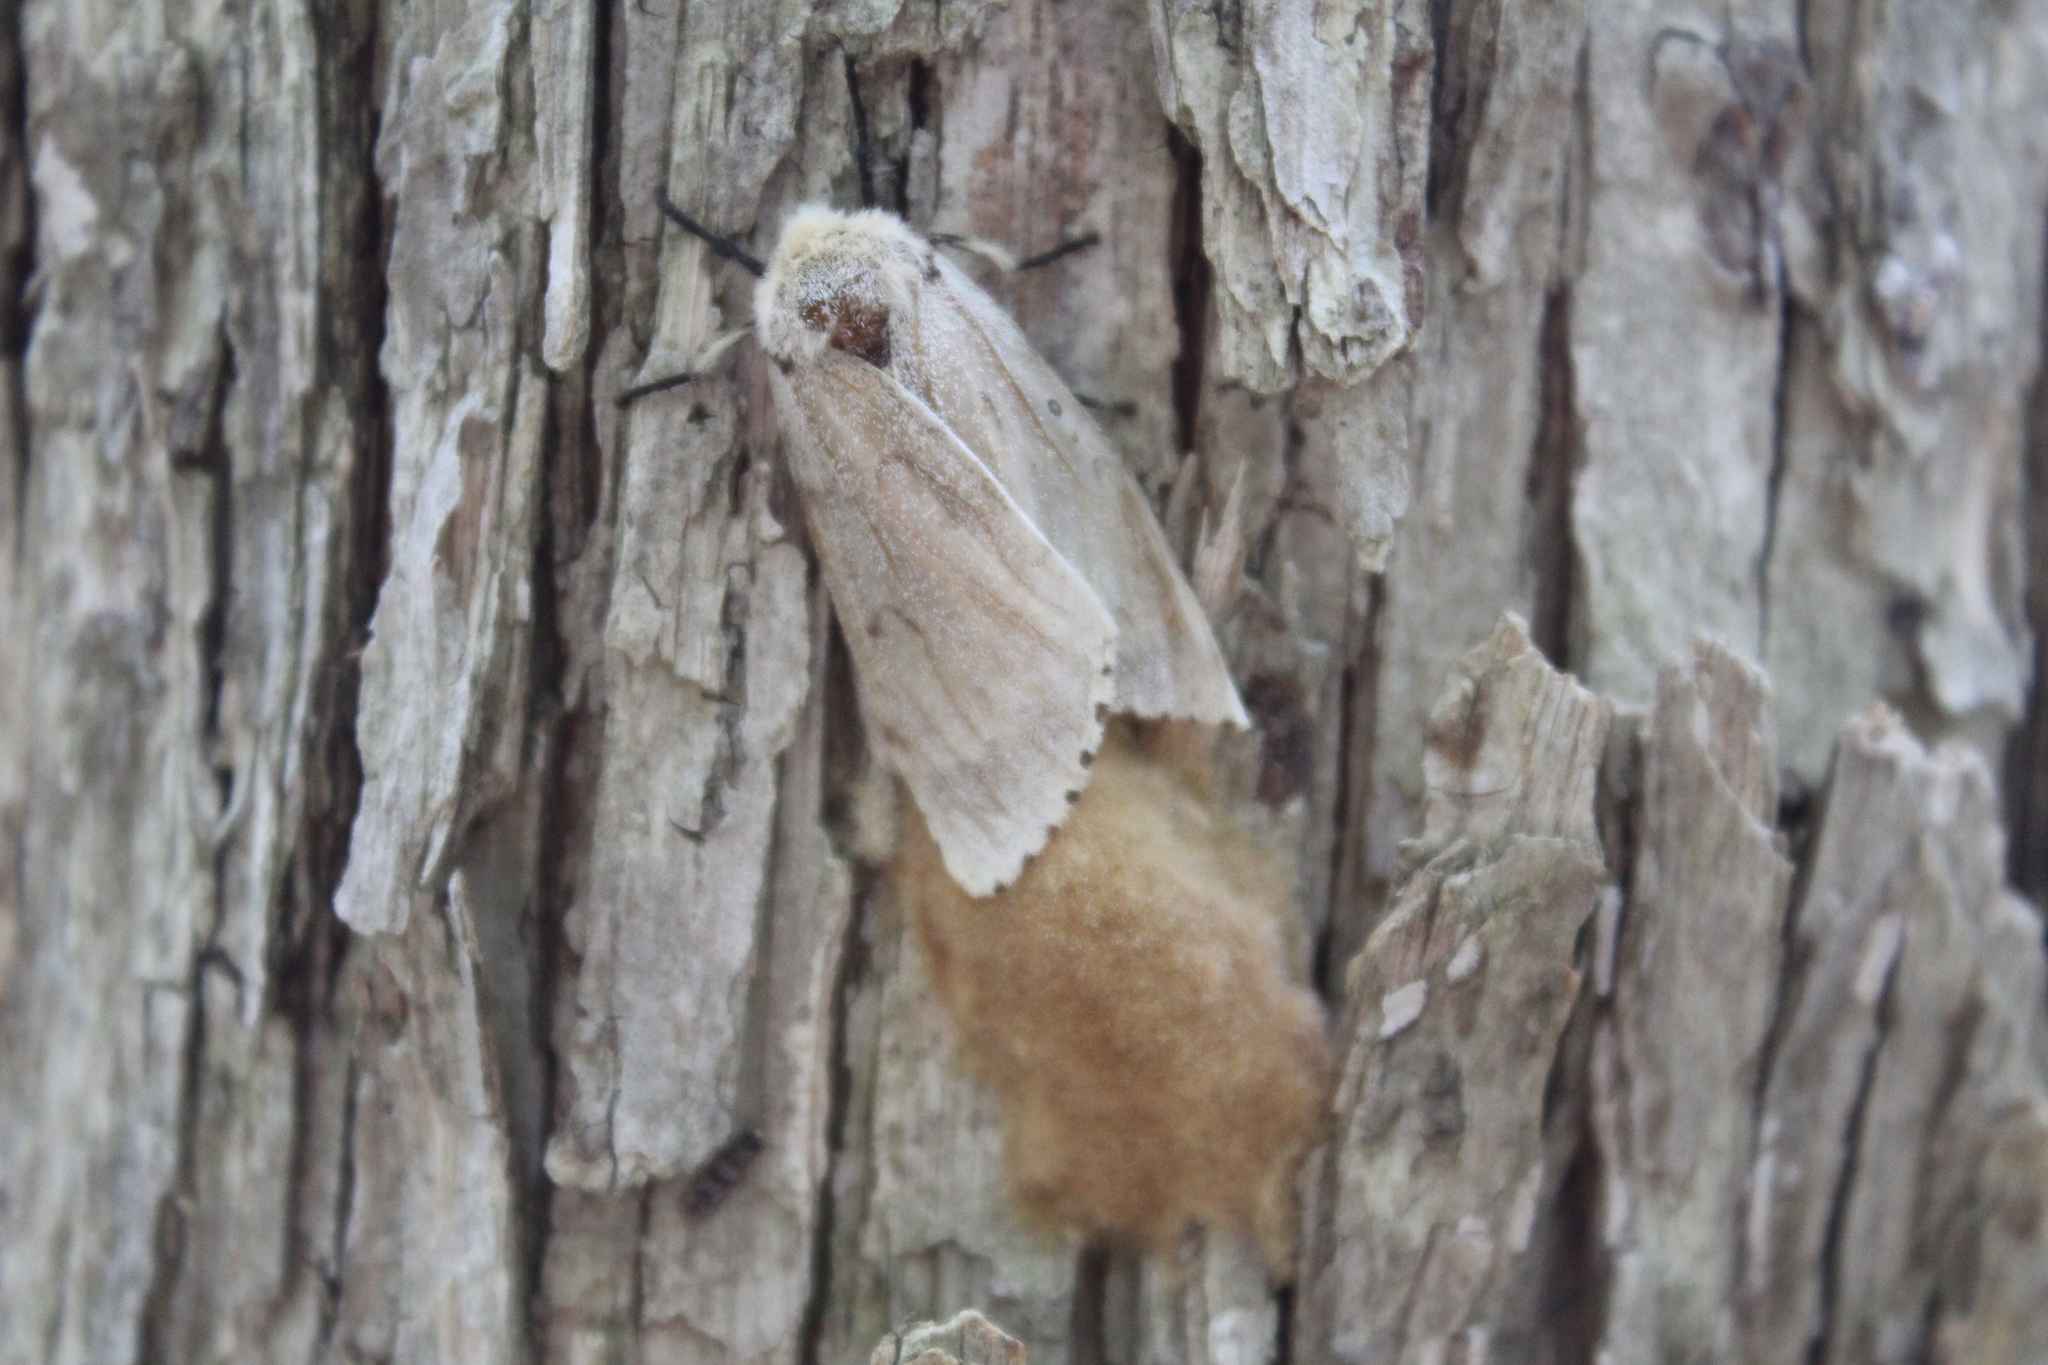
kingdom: Animalia
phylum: Arthropoda
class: Insecta
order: Lepidoptera
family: Erebidae
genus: Lymantria
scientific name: Lymantria dispar
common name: Gypsy moth
